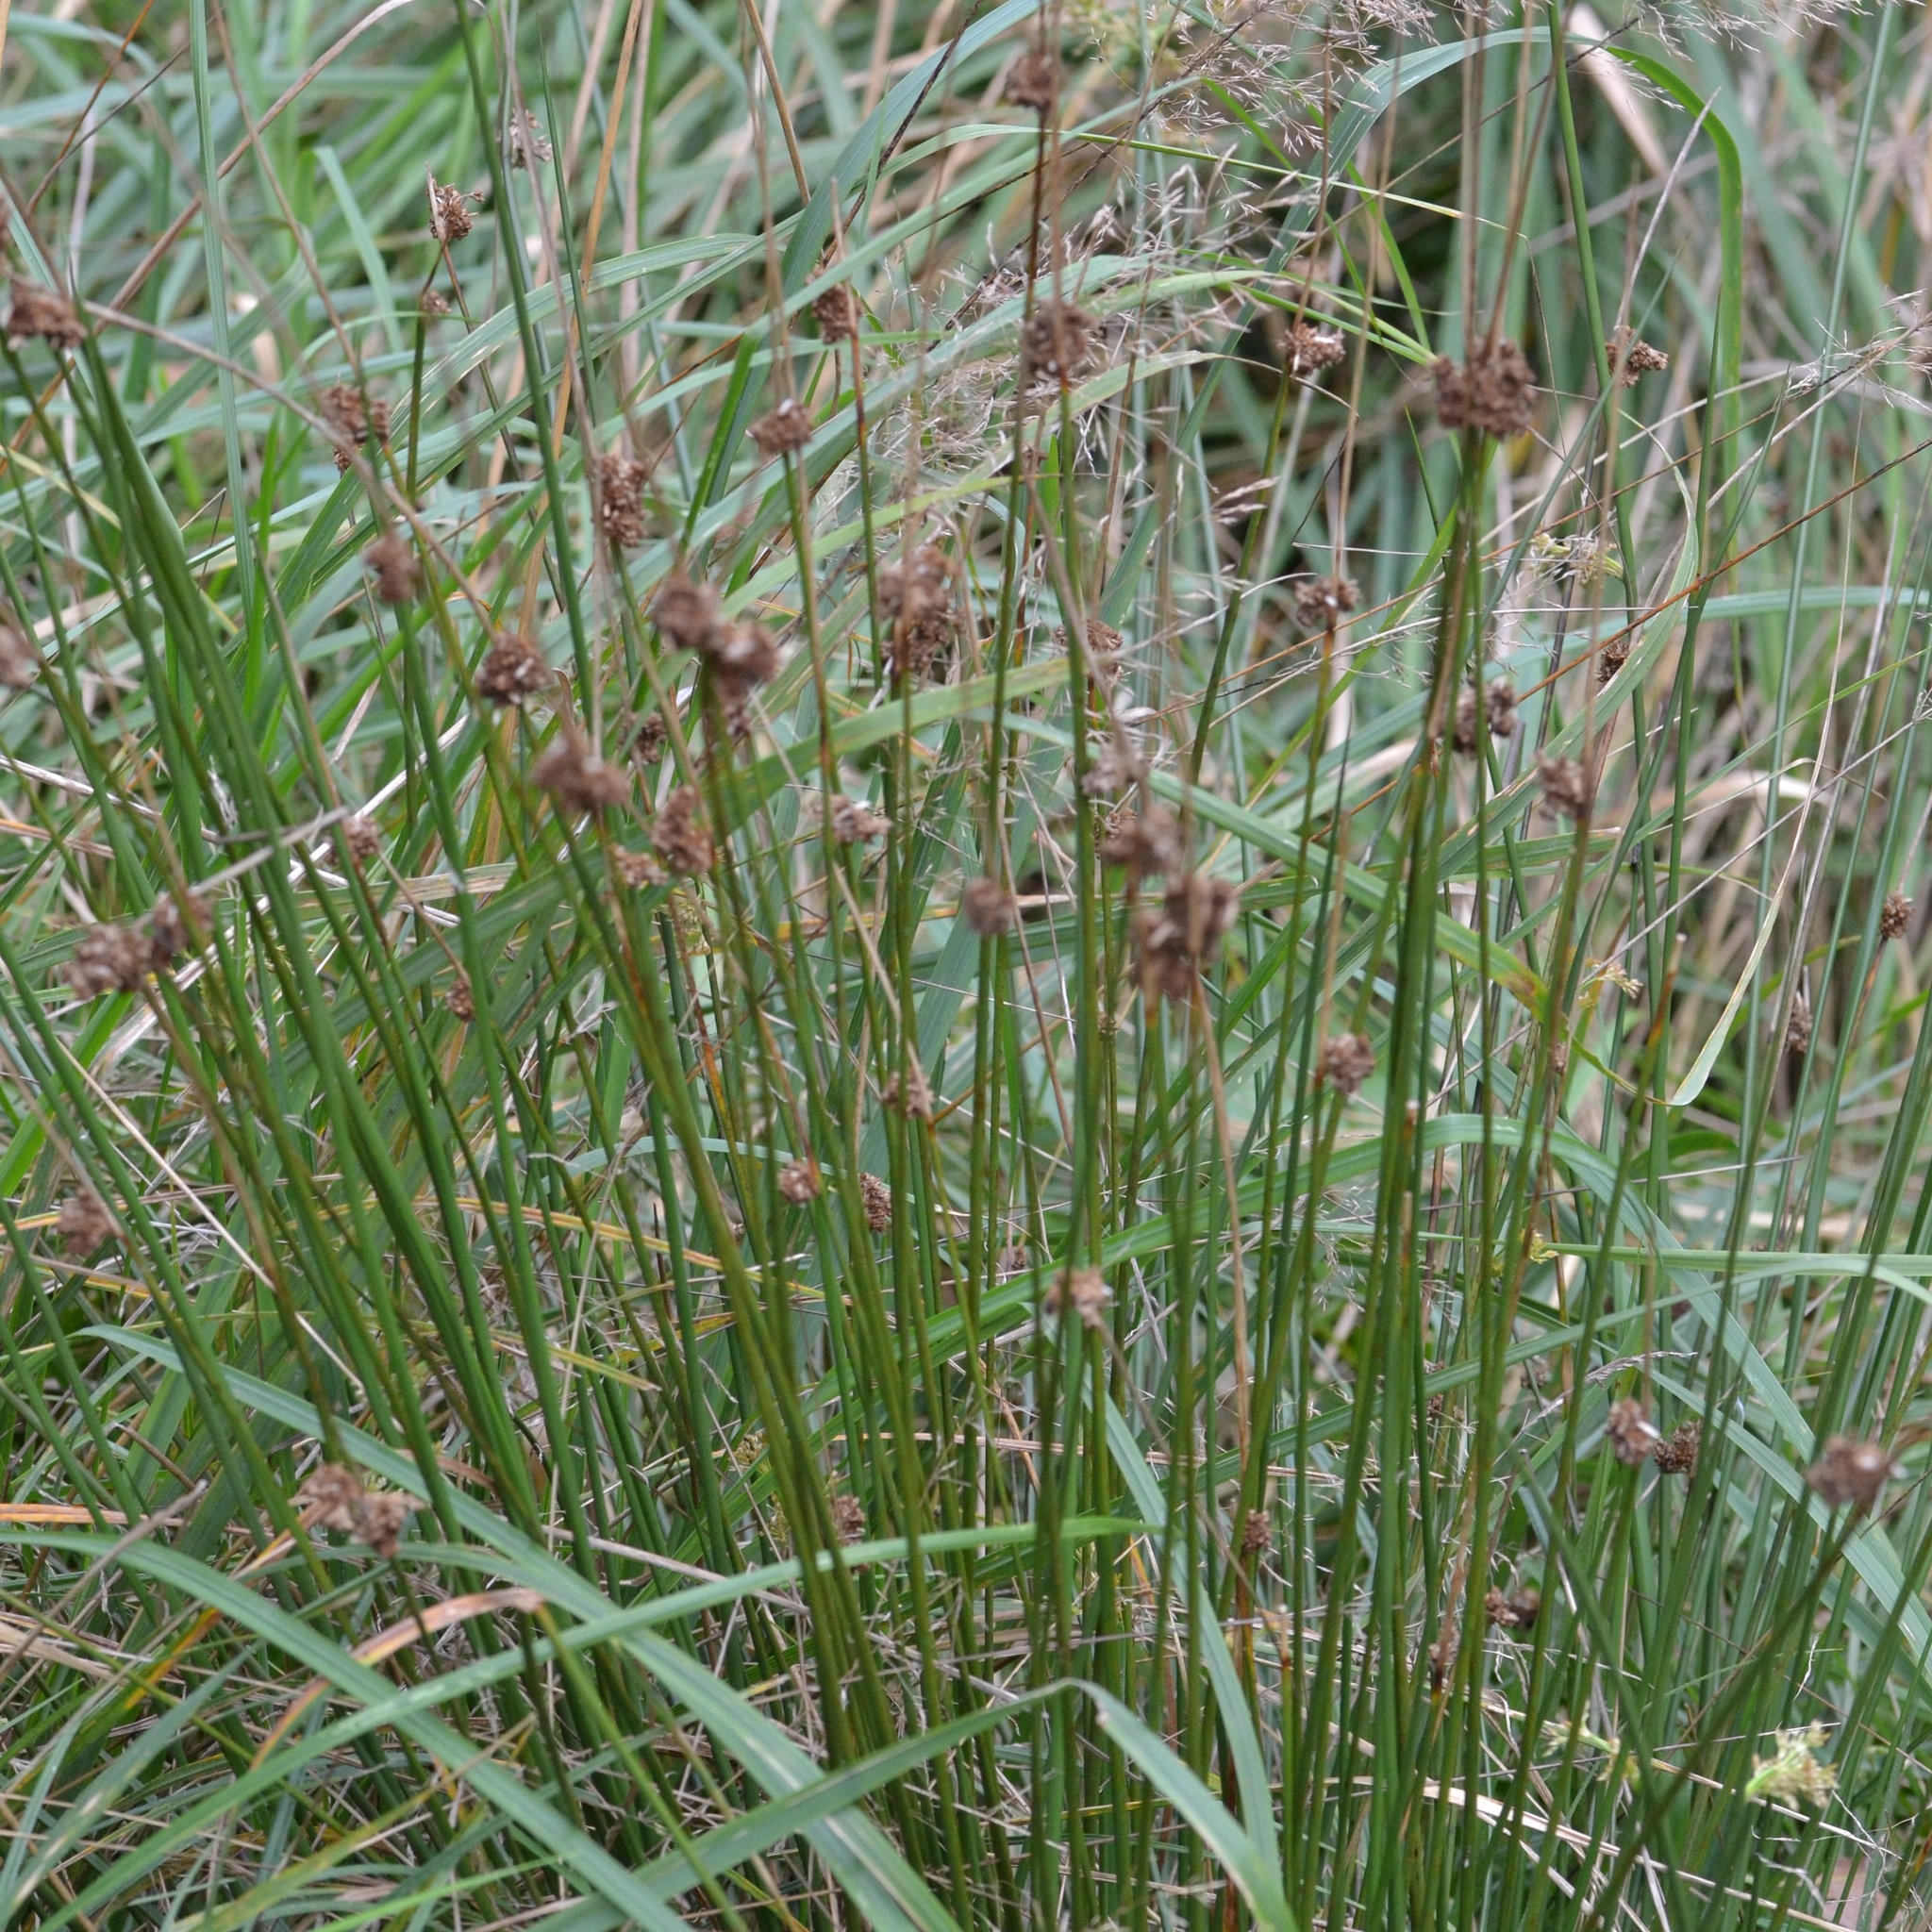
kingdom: Plantae
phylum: Tracheophyta
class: Liliopsida
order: Poales
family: Juncaceae
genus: Juncus
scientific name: Juncus conglomeratus
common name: Compact rush
